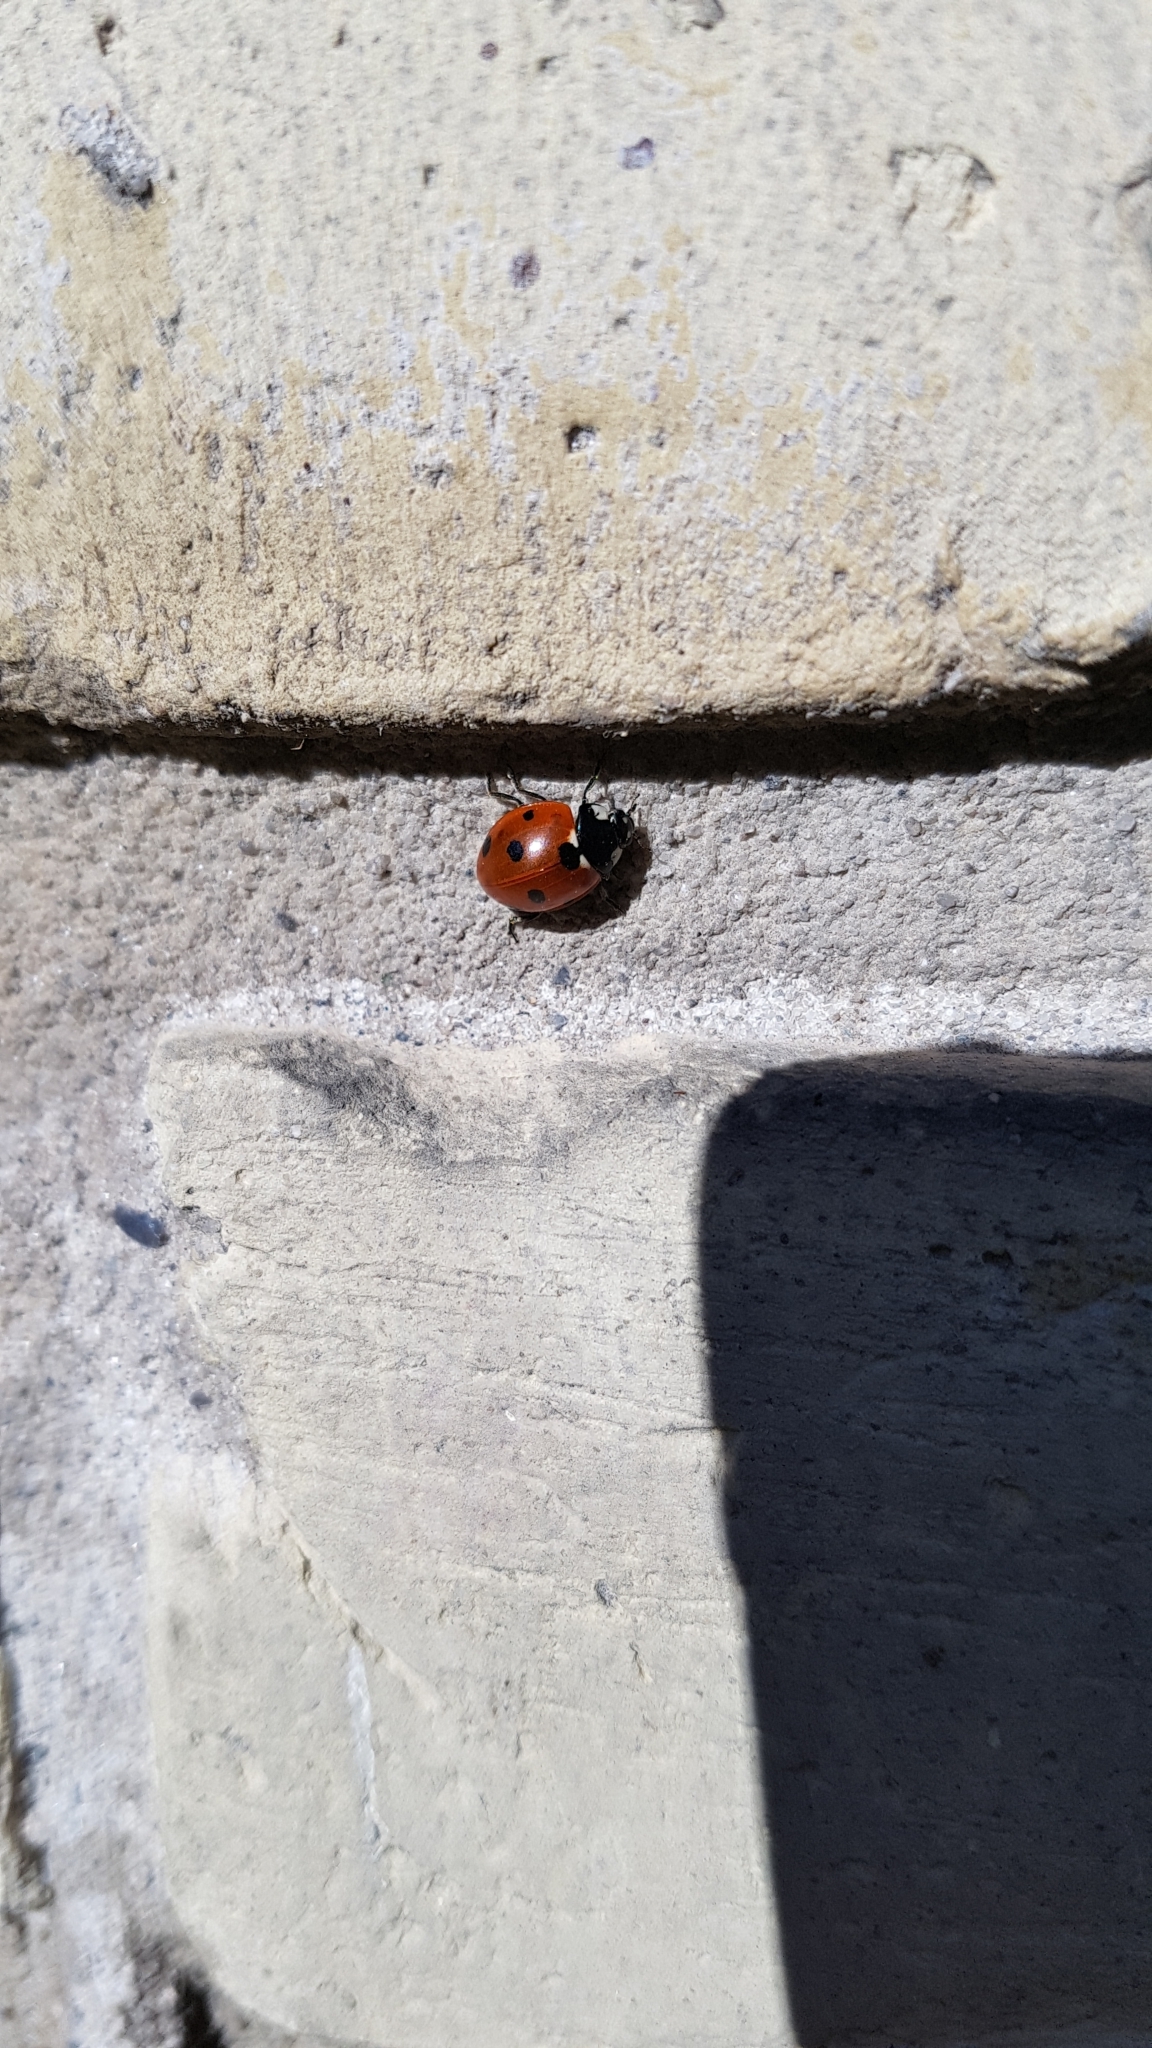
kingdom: Animalia
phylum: Arthropoda
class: Insecta
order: Coleoptera
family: Coccinellidae
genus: Coccinella
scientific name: Coccinella septempunctata
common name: Sevenspotted lady beetle
